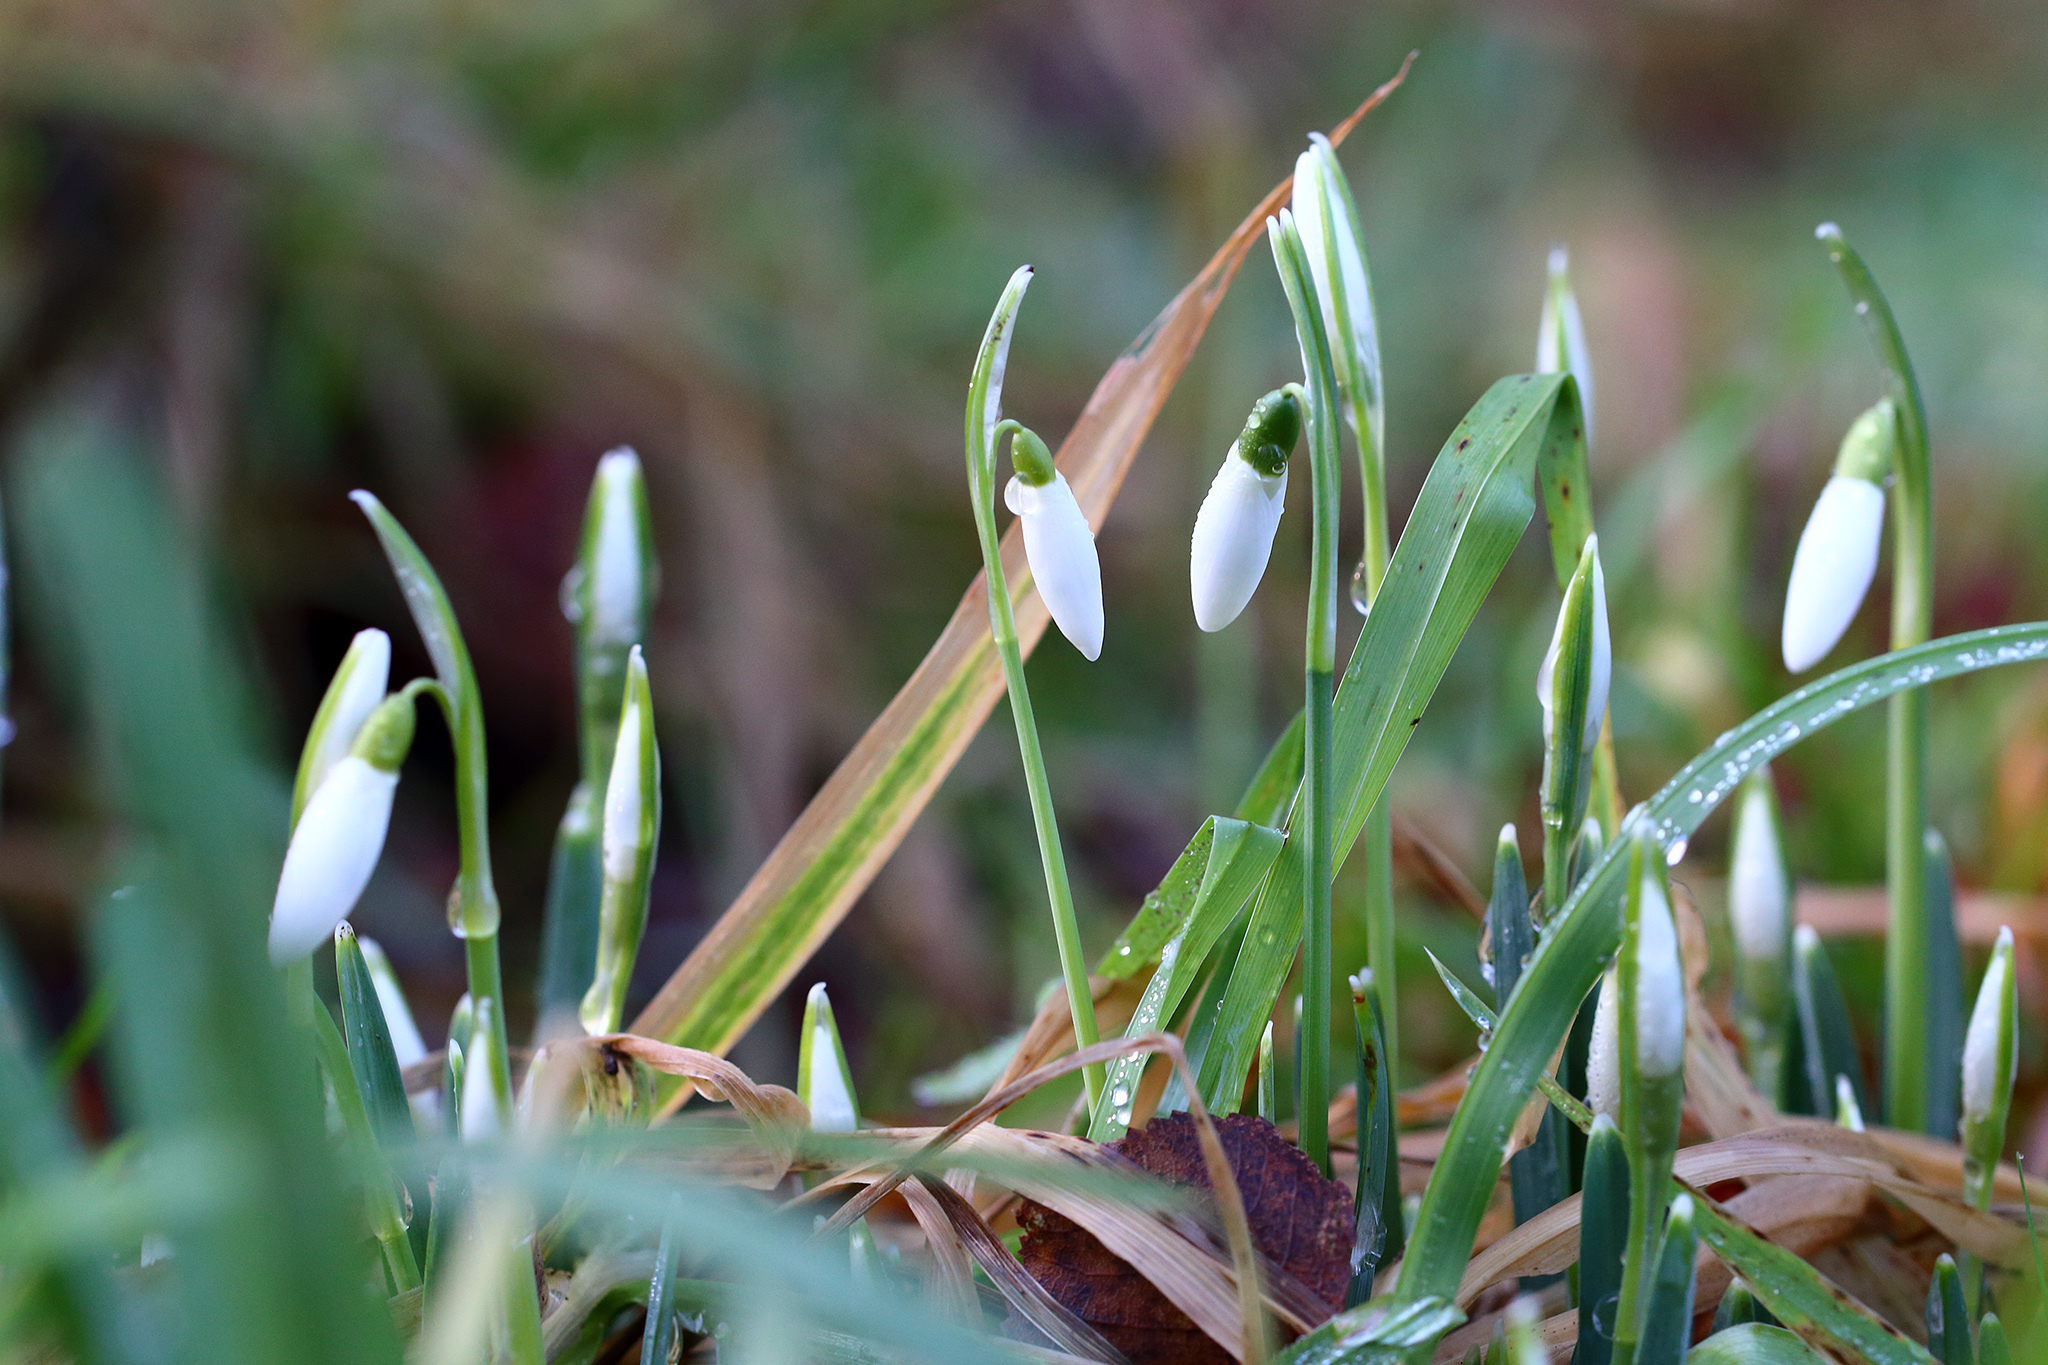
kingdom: Plantae
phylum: Tracheophyta
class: Liliopsida
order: Asparagales
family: Amaryllidaceae
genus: Galanthus
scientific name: Galanthus nivalis
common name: Snowdrop
